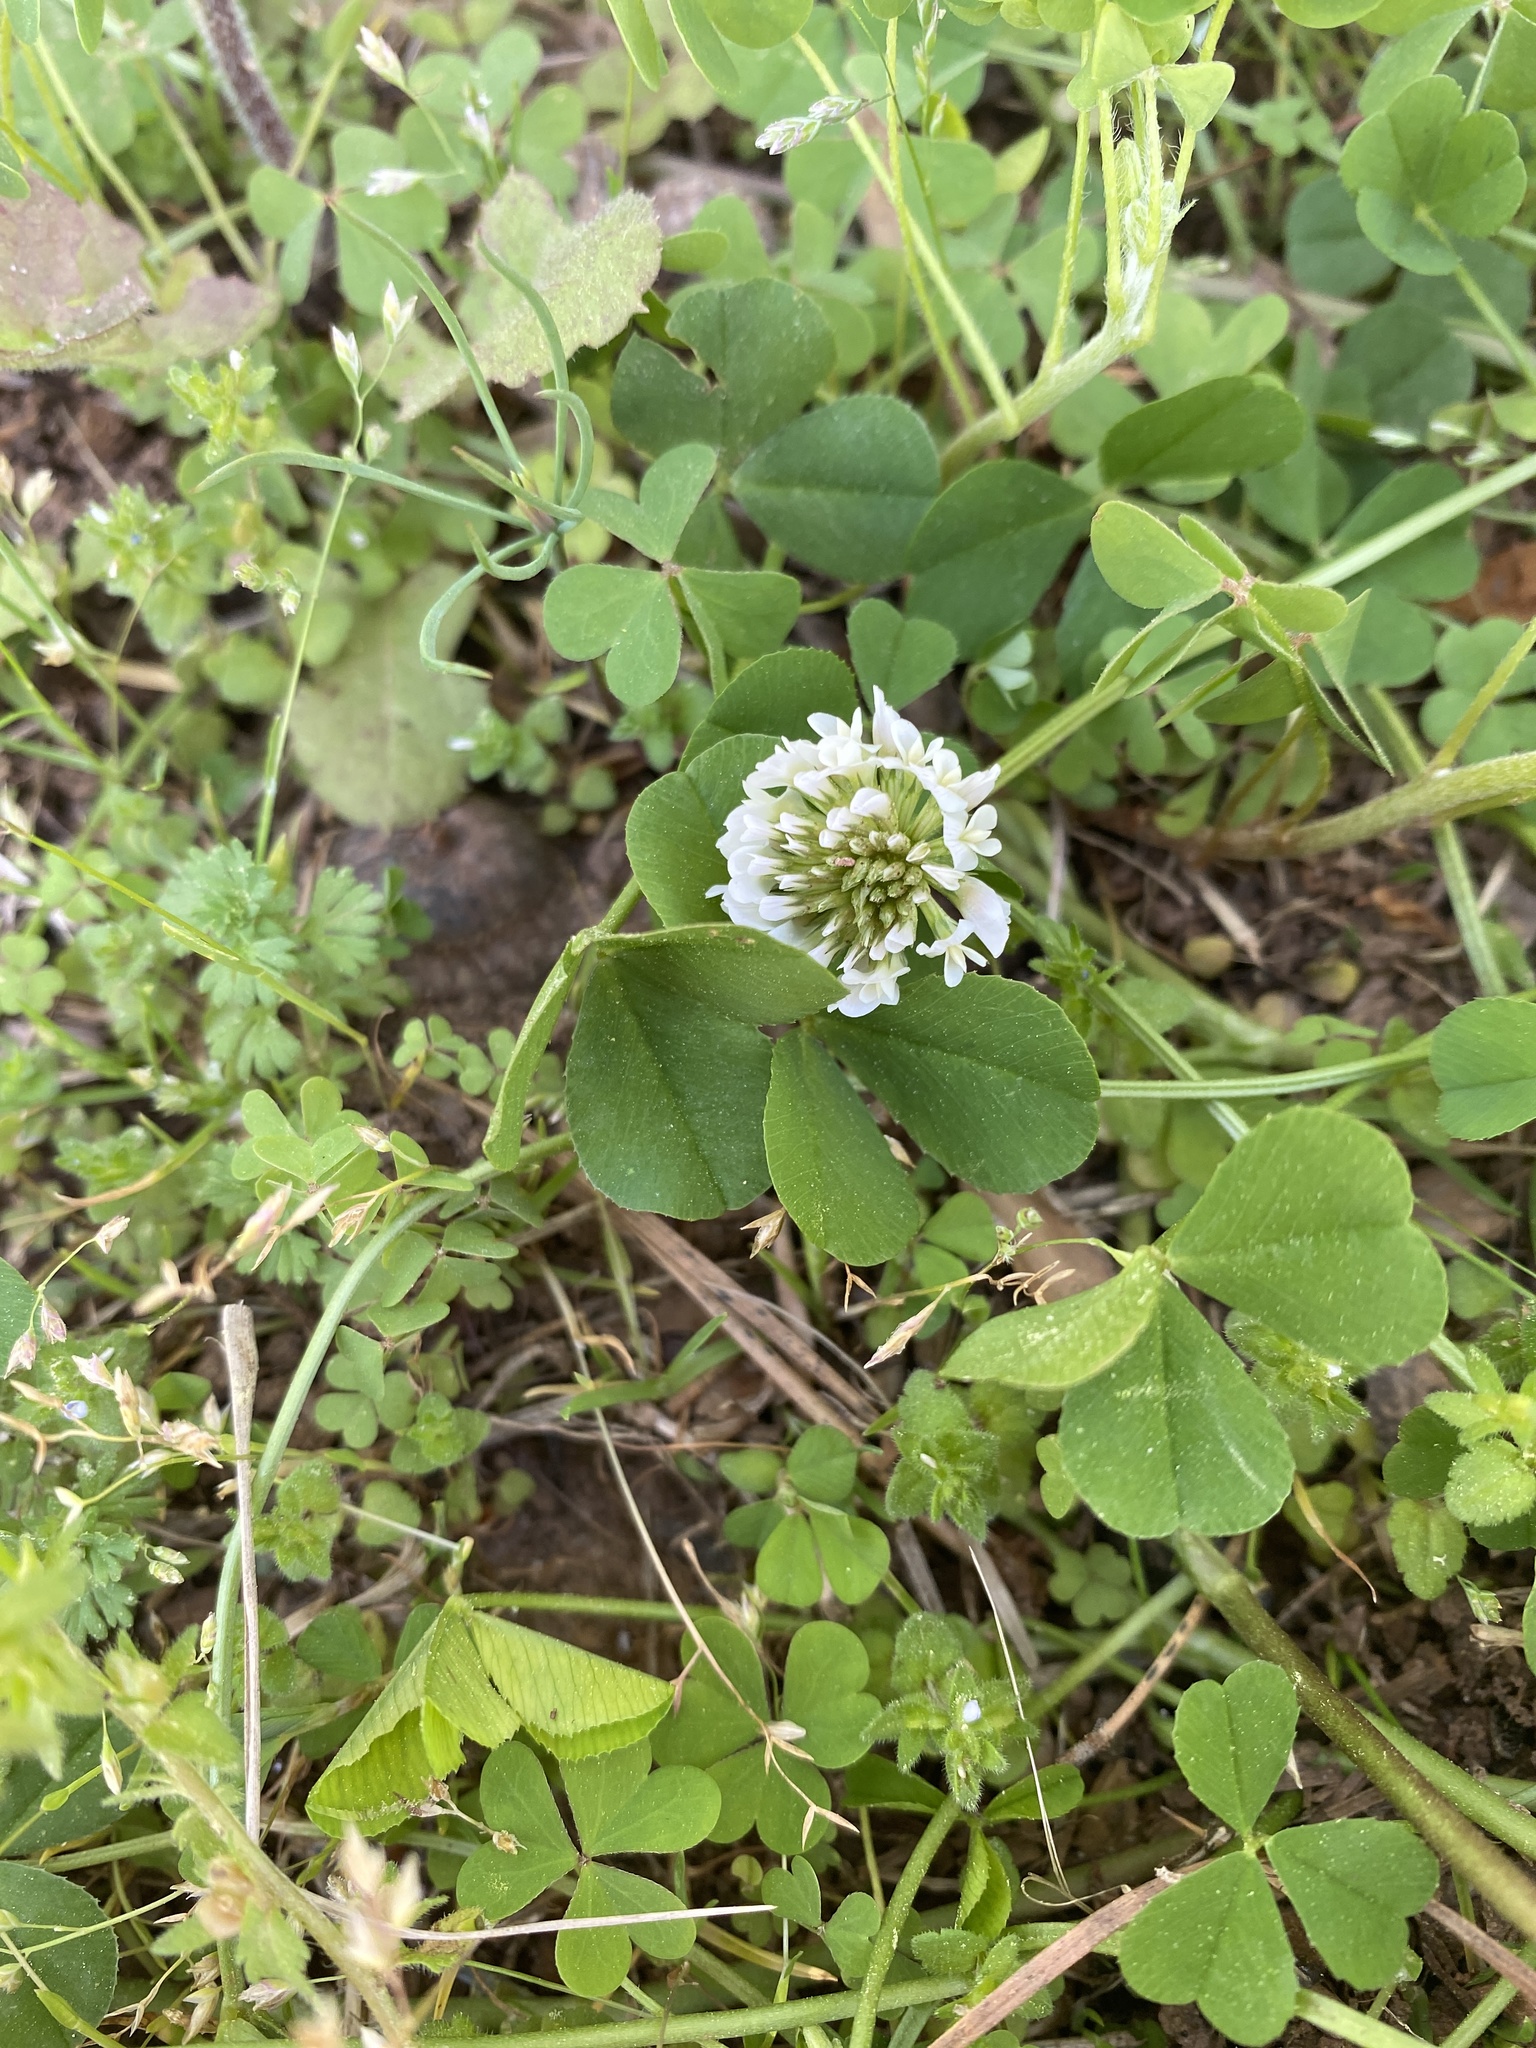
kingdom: Plantae
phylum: Tracheophyta
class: Magnoliopsida
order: Fabales
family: Fabaceae
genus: Trifolium
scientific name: Trifolium repens
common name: White clover
